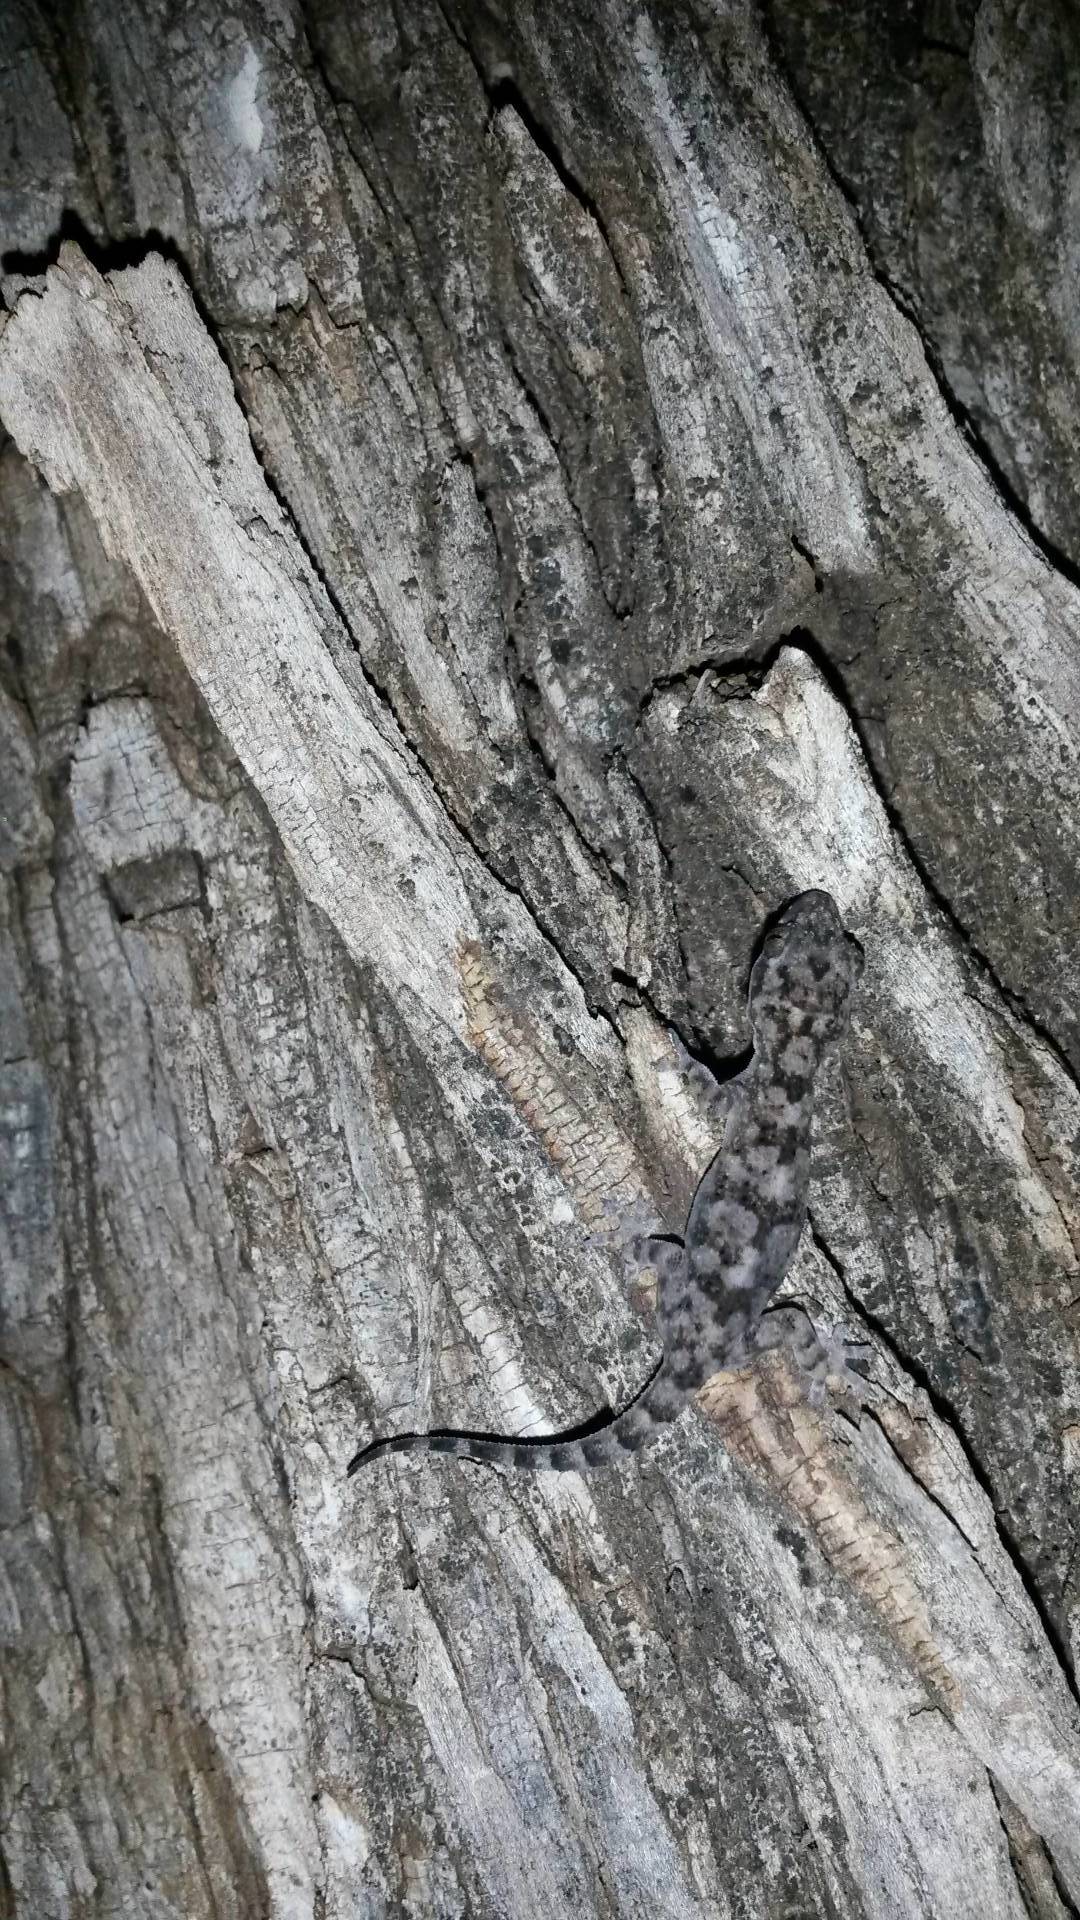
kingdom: Animalia
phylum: Chordata
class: Squamata
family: Gekkonidae
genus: Hemidactylus
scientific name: Hemidactylus mabouia
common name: House gecko
